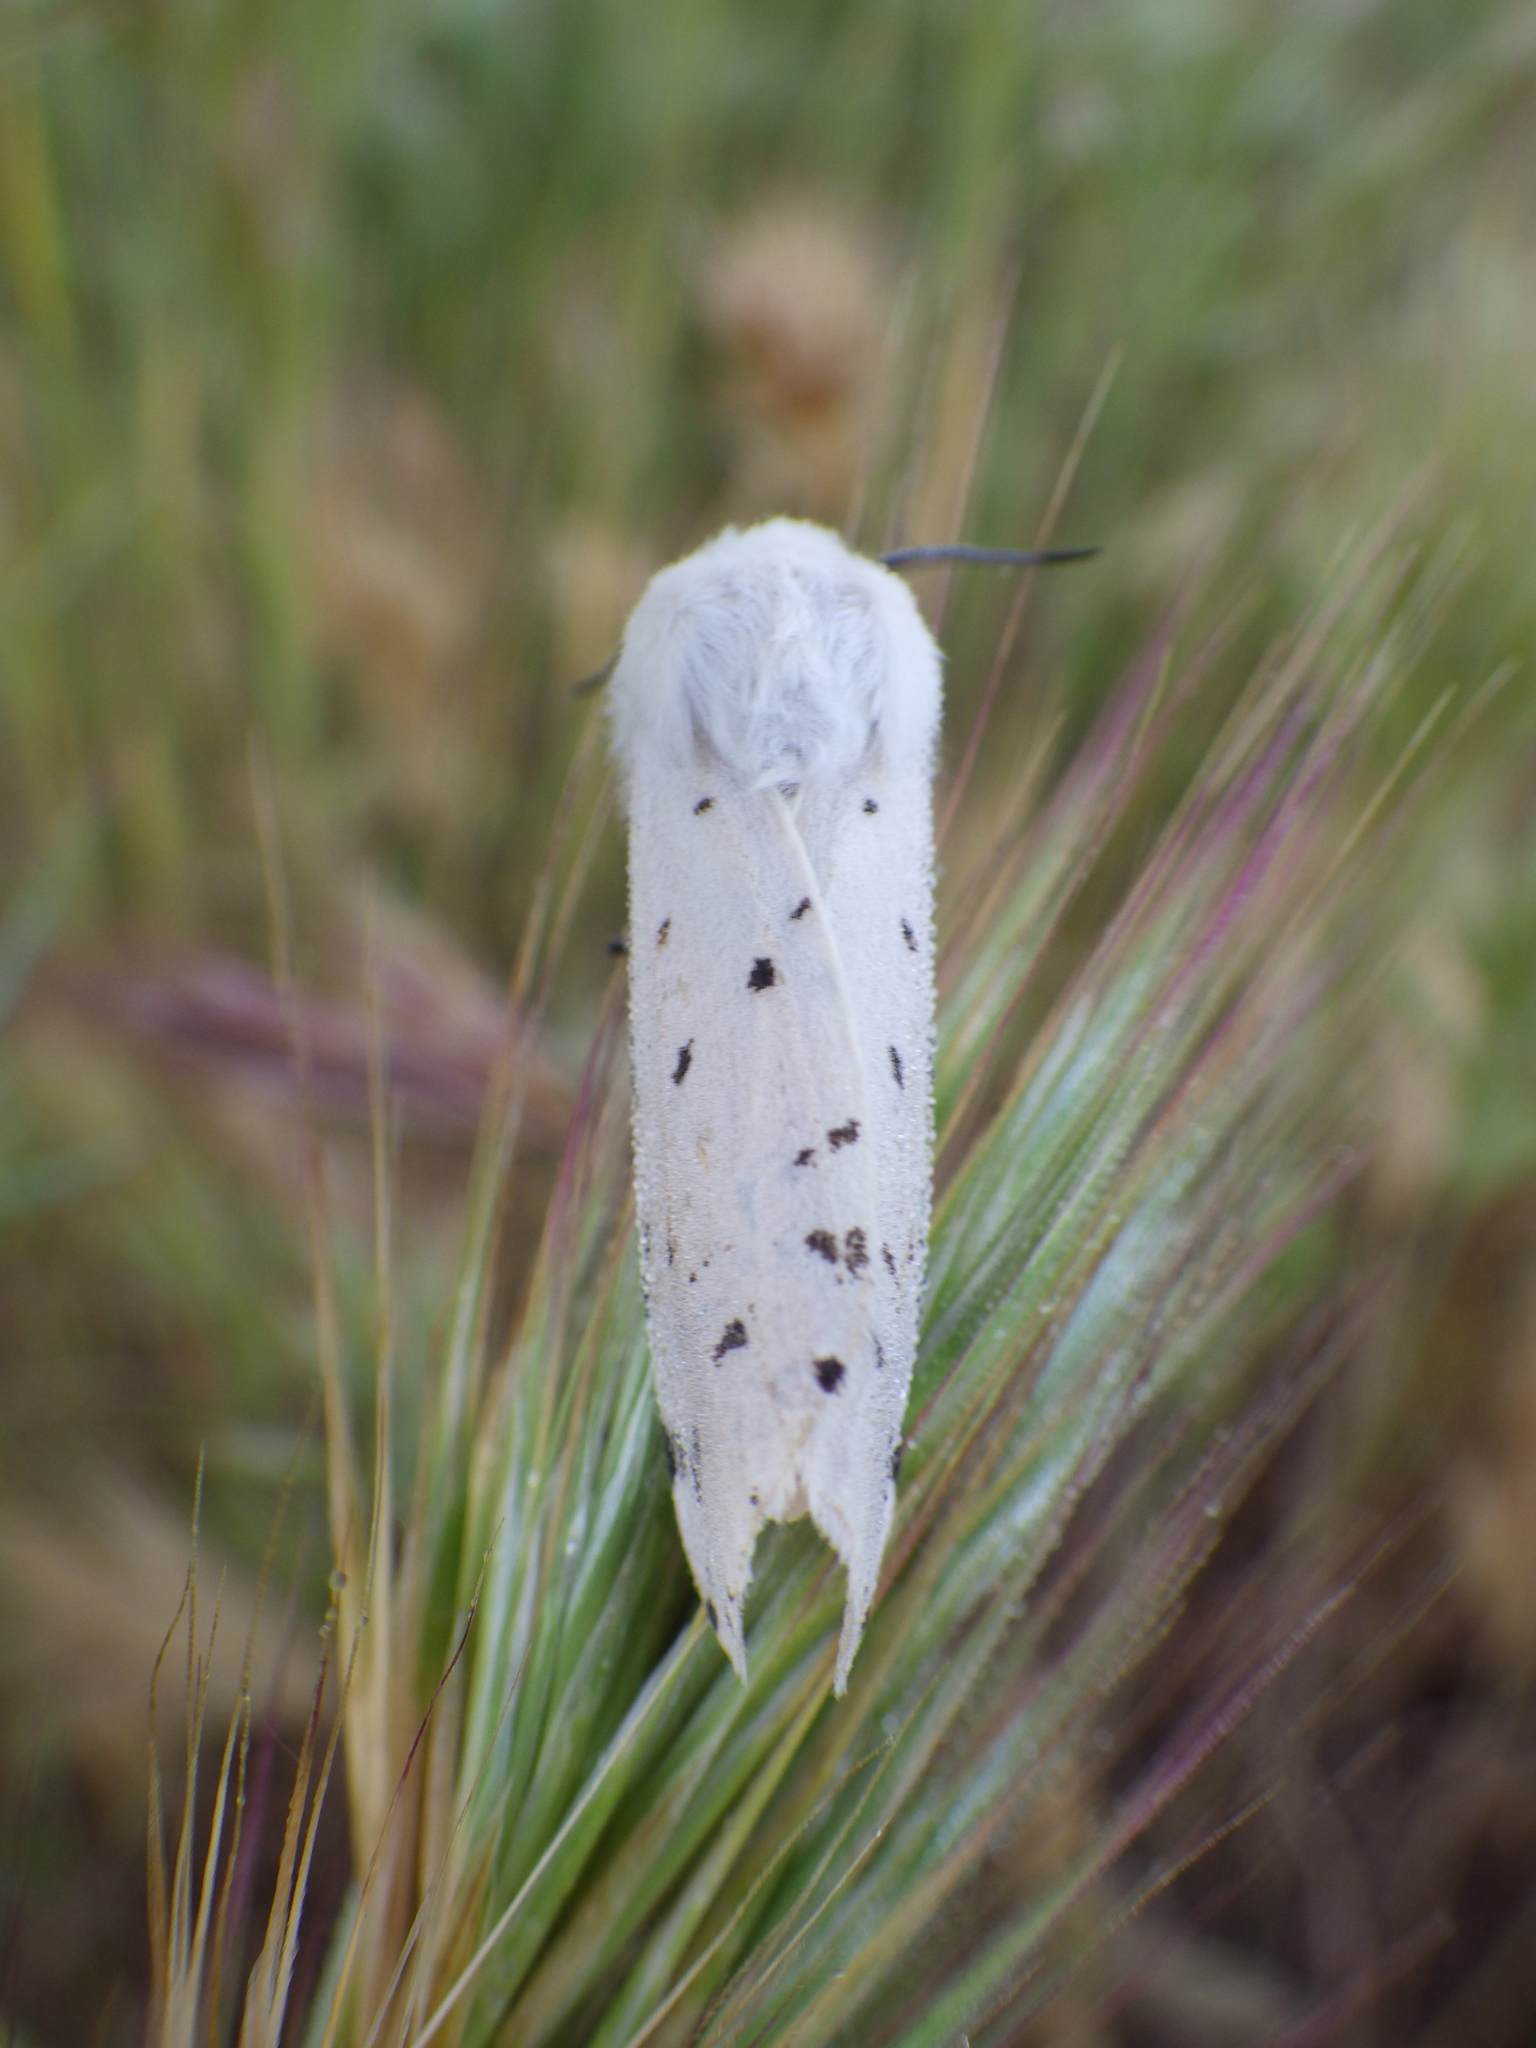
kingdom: Animalia
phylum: Arthropoda
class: Insecta
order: Lepidoptera
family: Erebidae
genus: Estigmene
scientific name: Estigmene acrea
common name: Salt marsh moth
